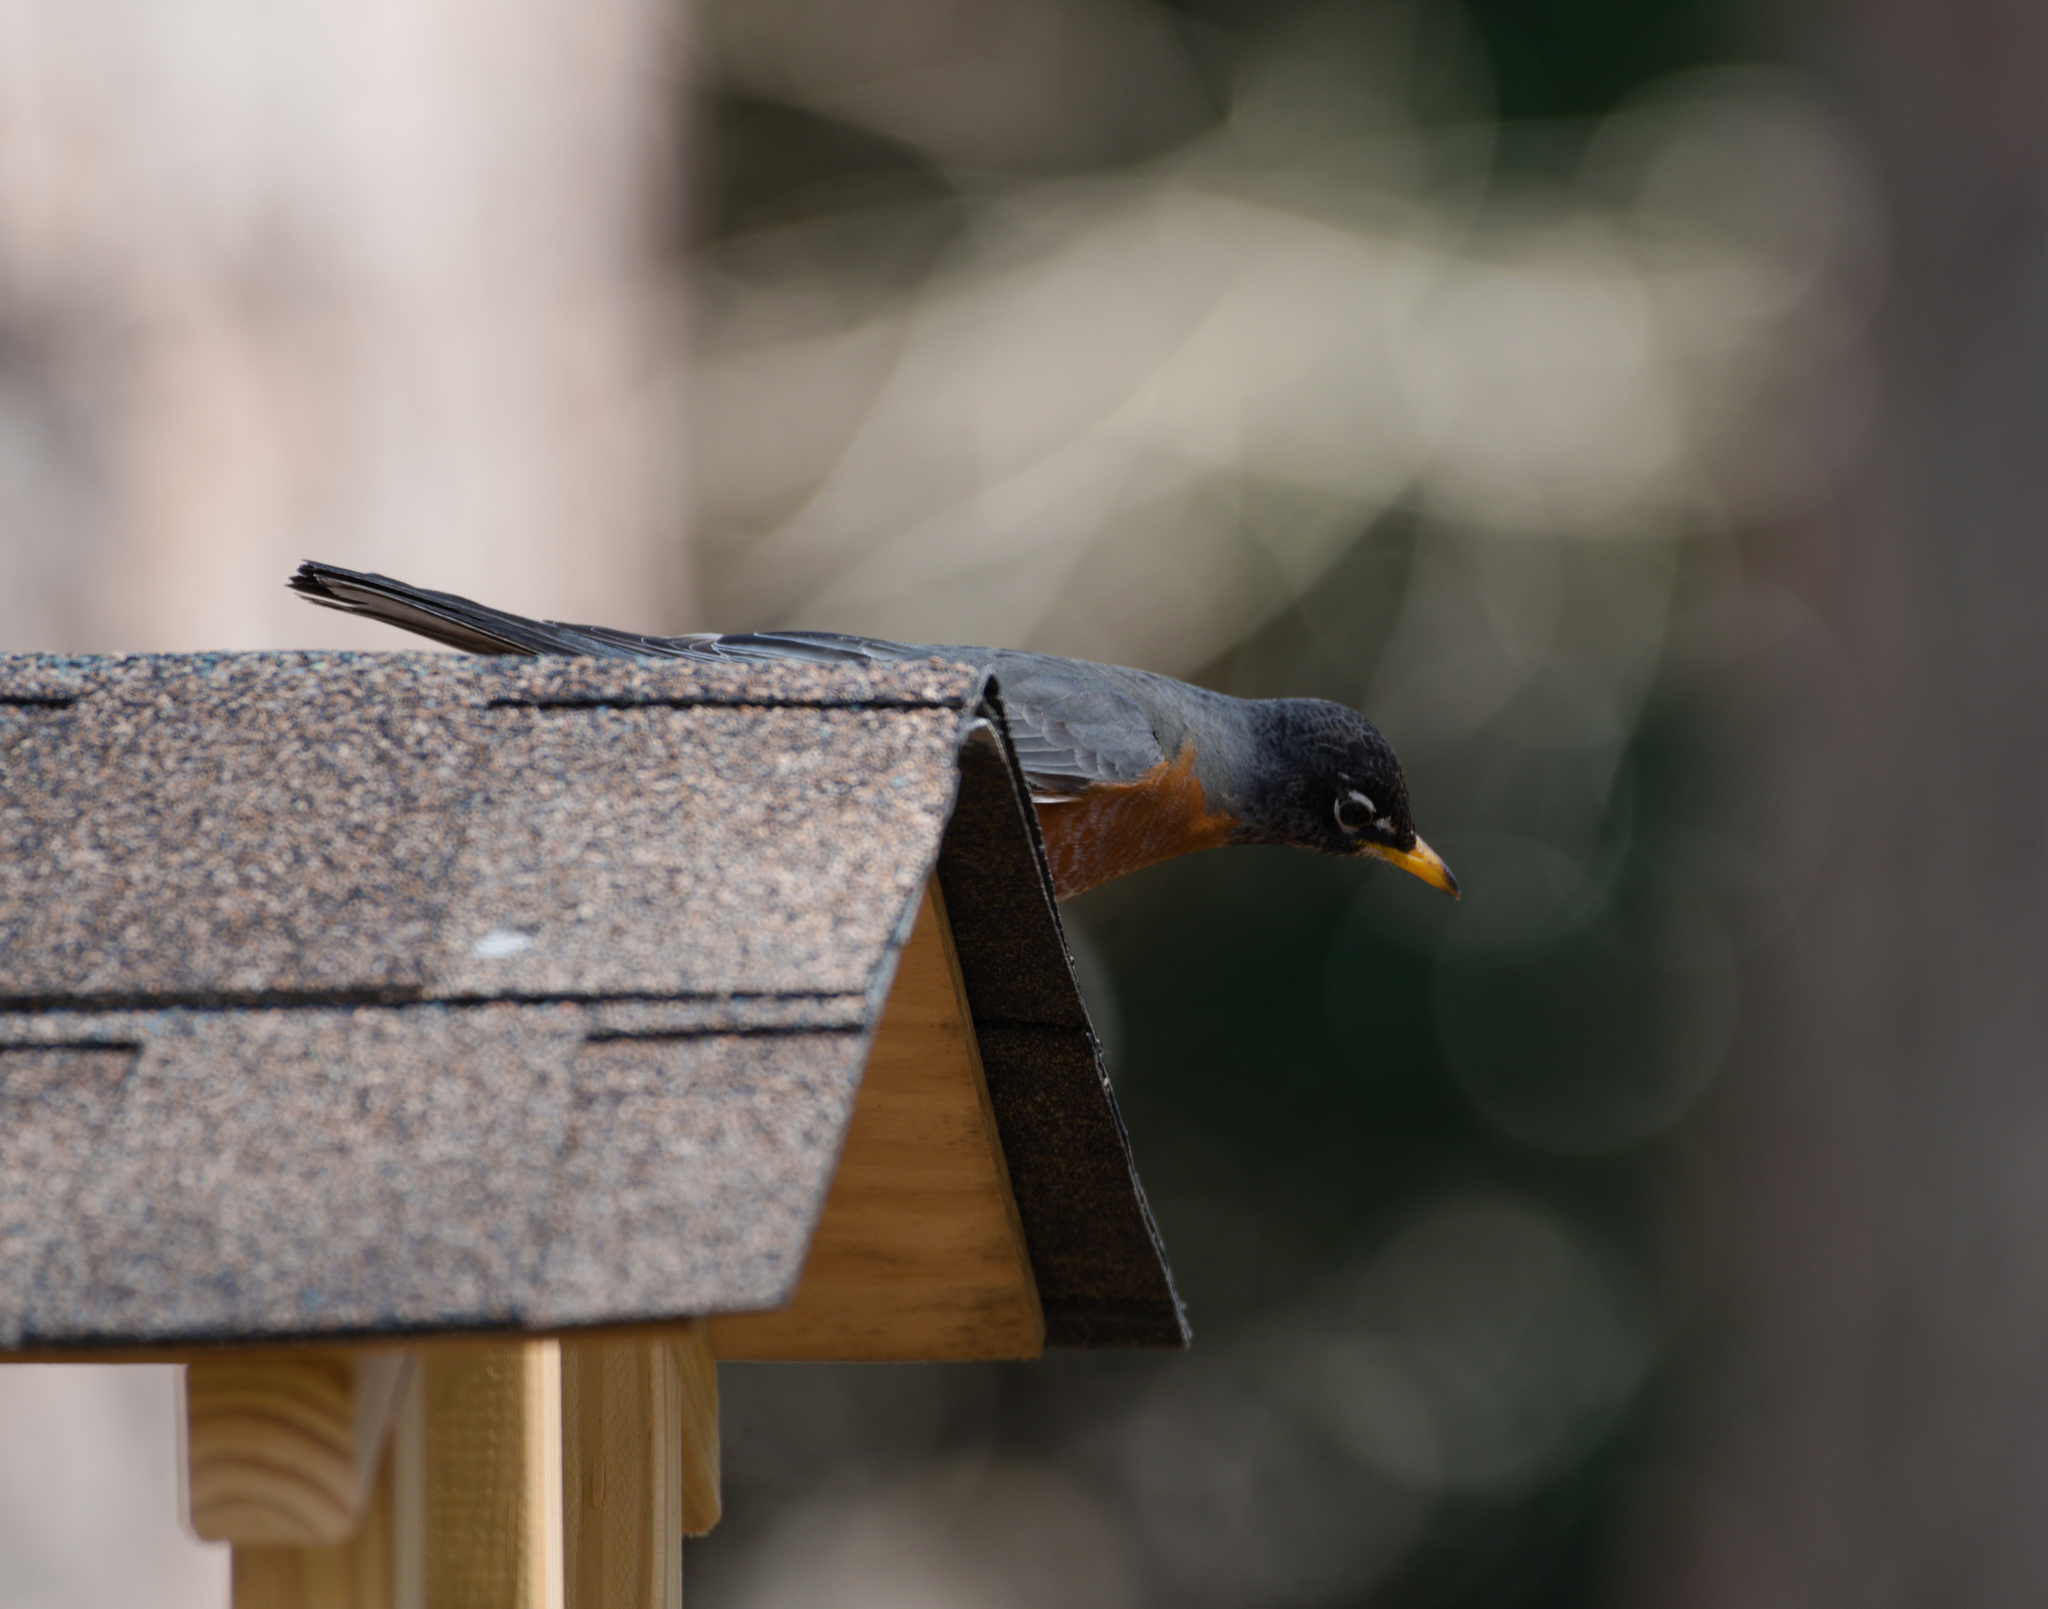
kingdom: Animalia
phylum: Chordata
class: Aves
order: Passeriformes
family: Turdidae
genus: Turdus
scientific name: Turdus migratorius
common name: American robin
